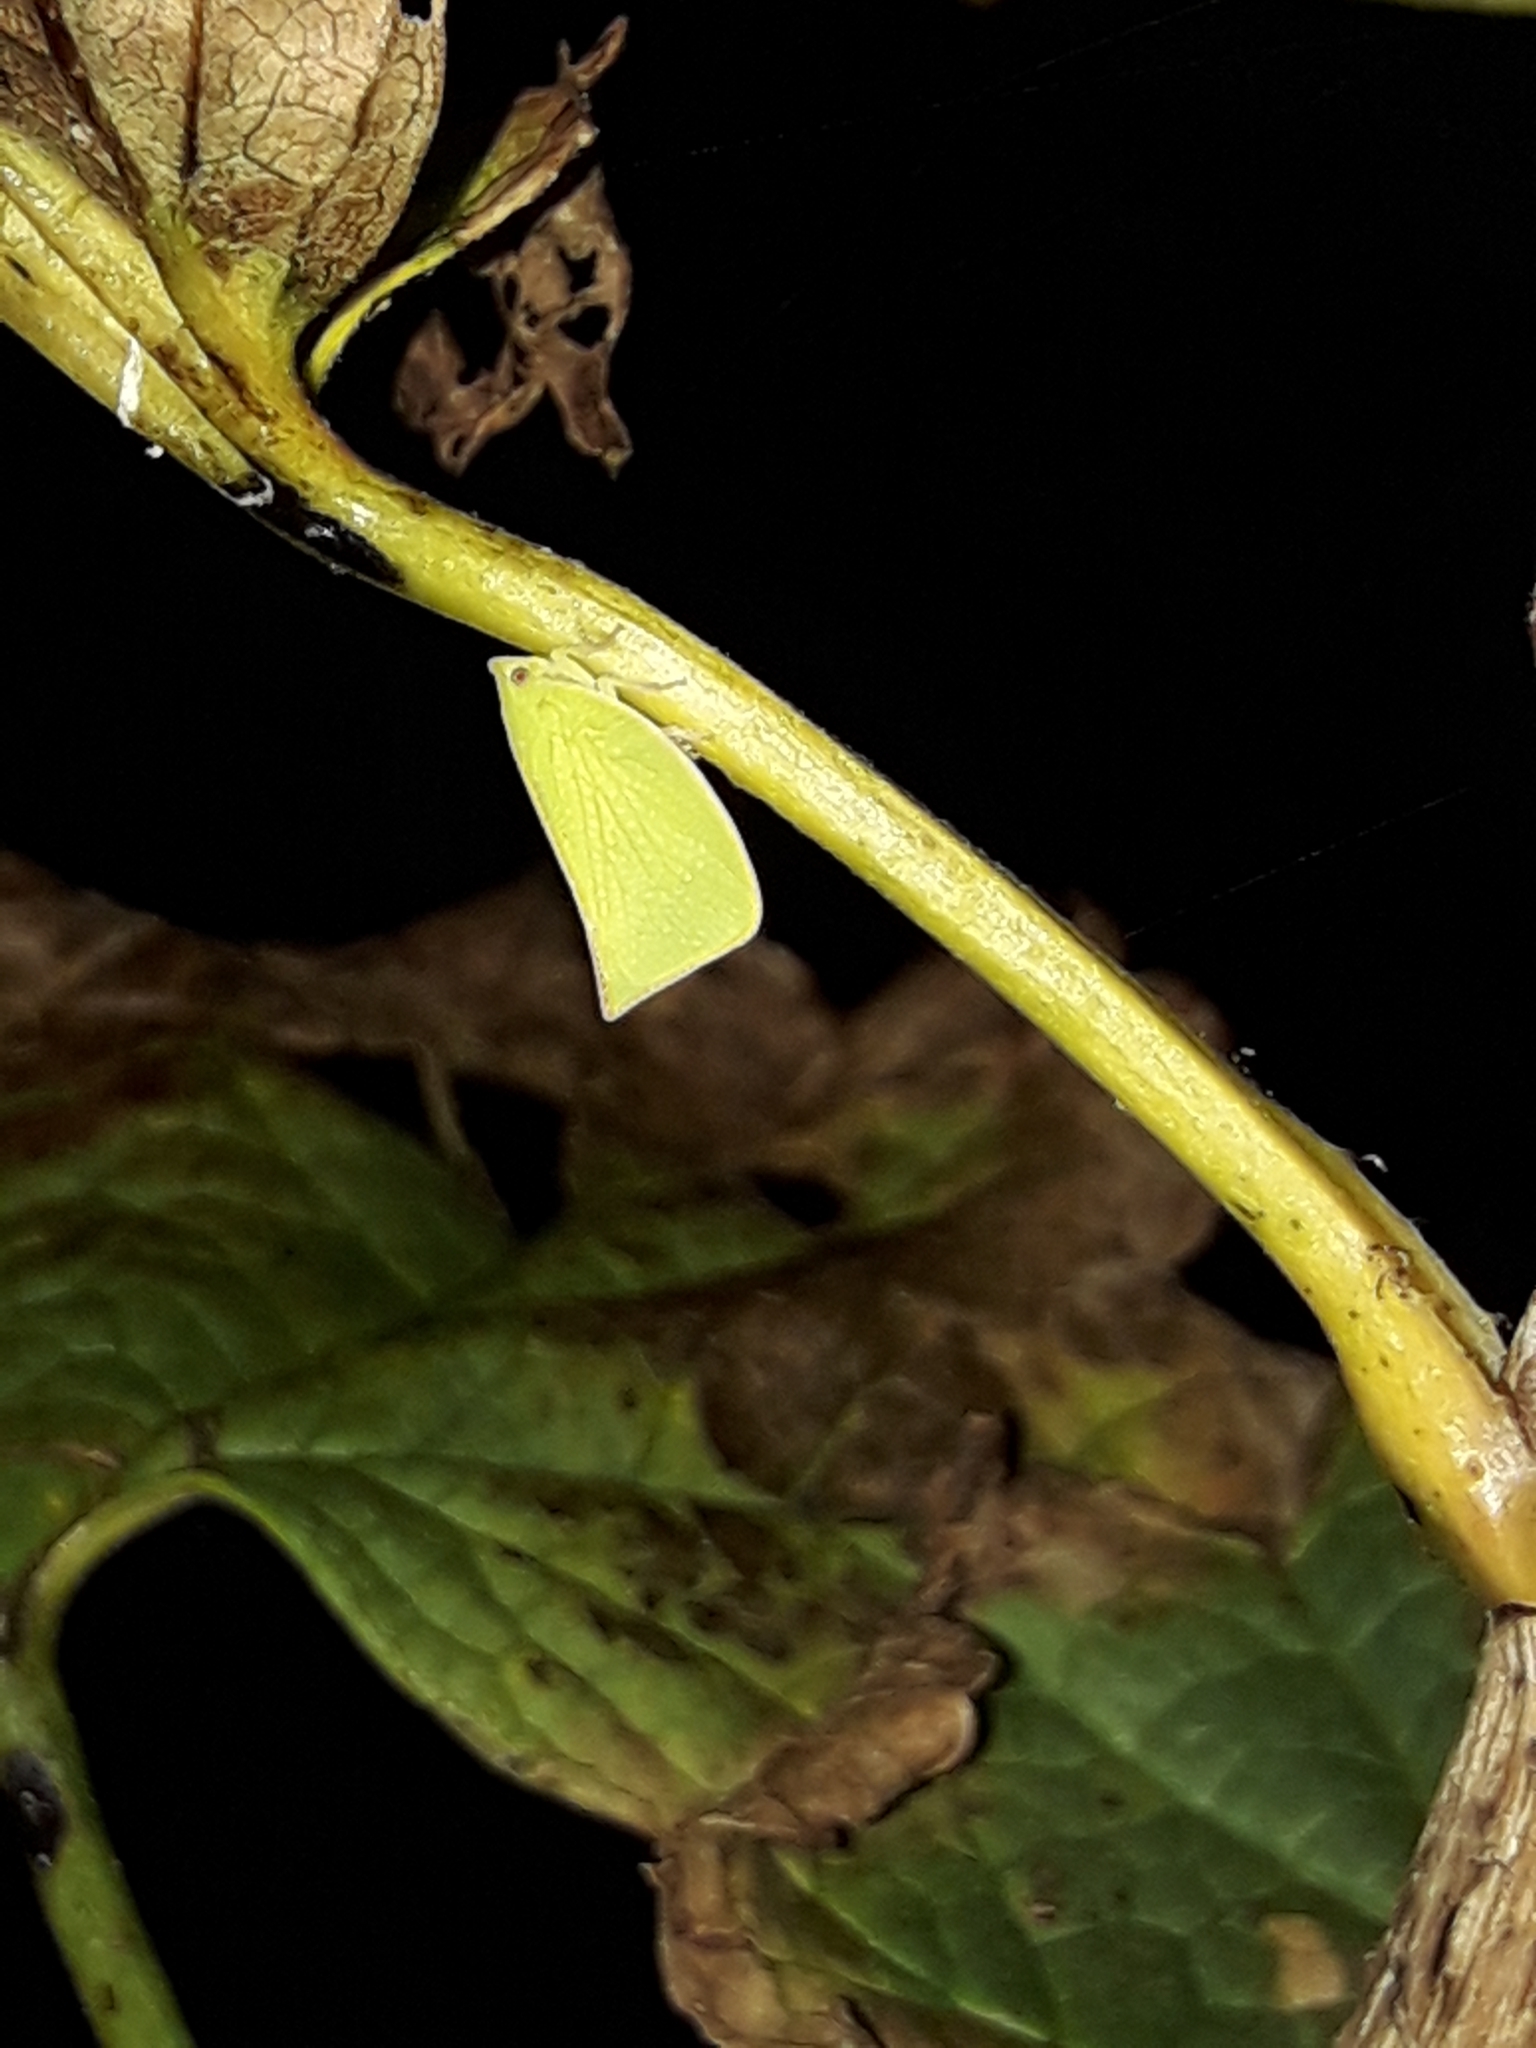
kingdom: Animalia
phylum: Arthropoda
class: Insecta
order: Hemiptera
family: Flatidae
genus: Siphanta
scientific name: Siphanta acuta
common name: Torpedo bug
